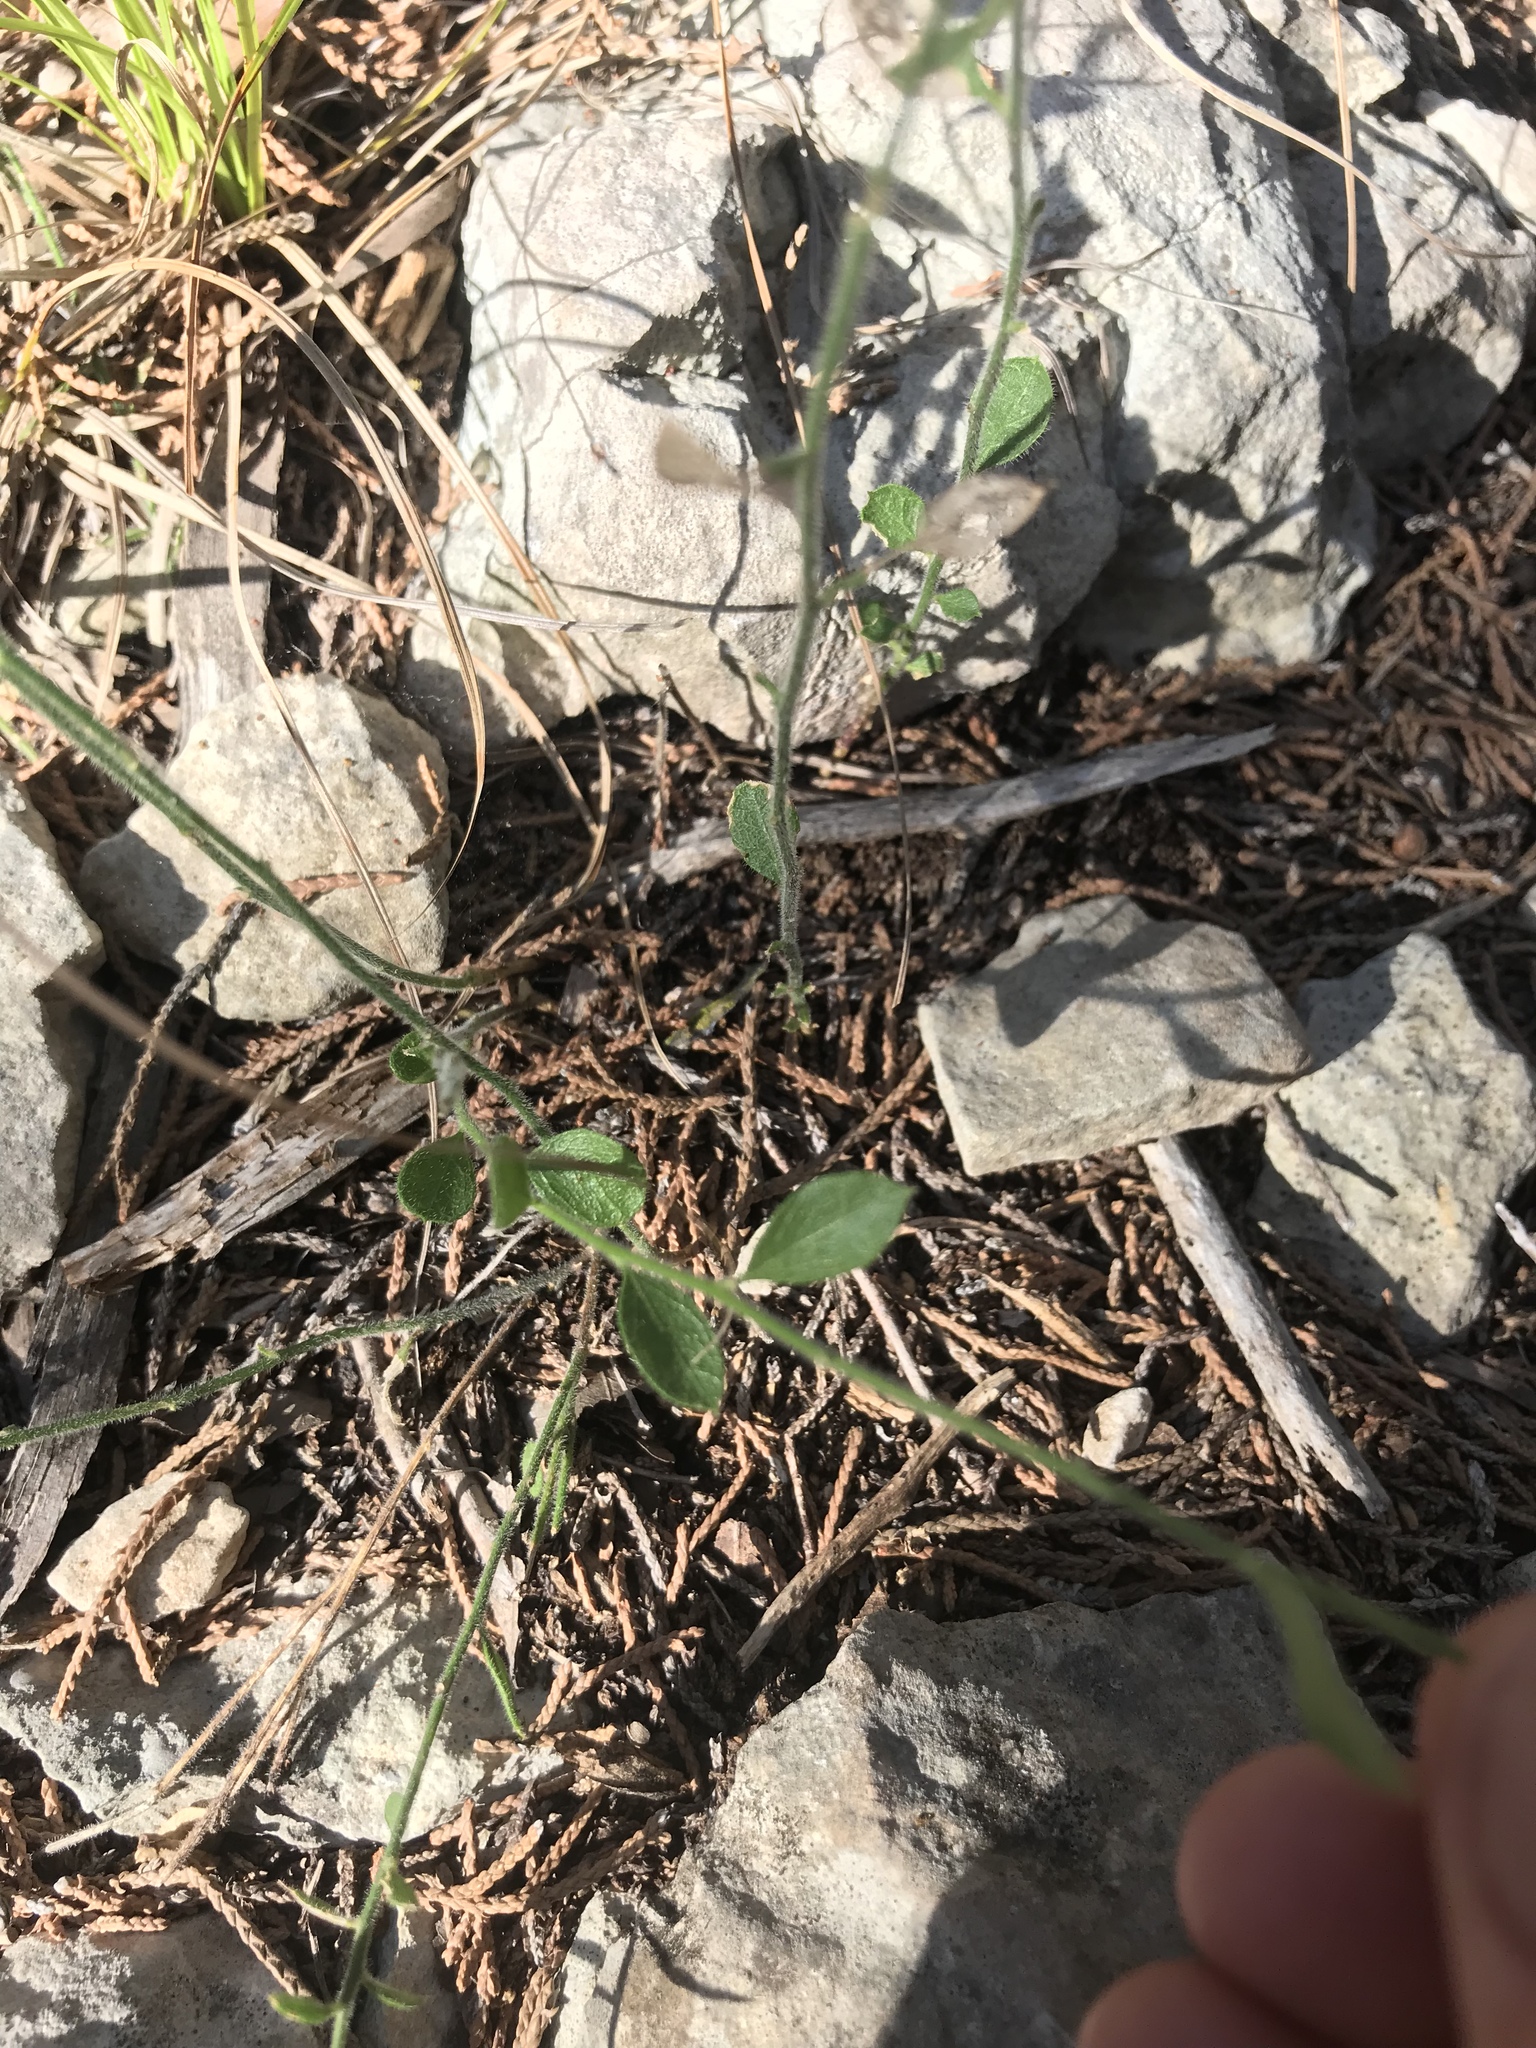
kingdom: Plantae
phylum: Tracheophyta
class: Magnoliopsida
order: Fabales
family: Polygalaceae
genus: Rhinotropis
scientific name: Rhinotropis lindheimeri
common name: Shrubby milkwort
